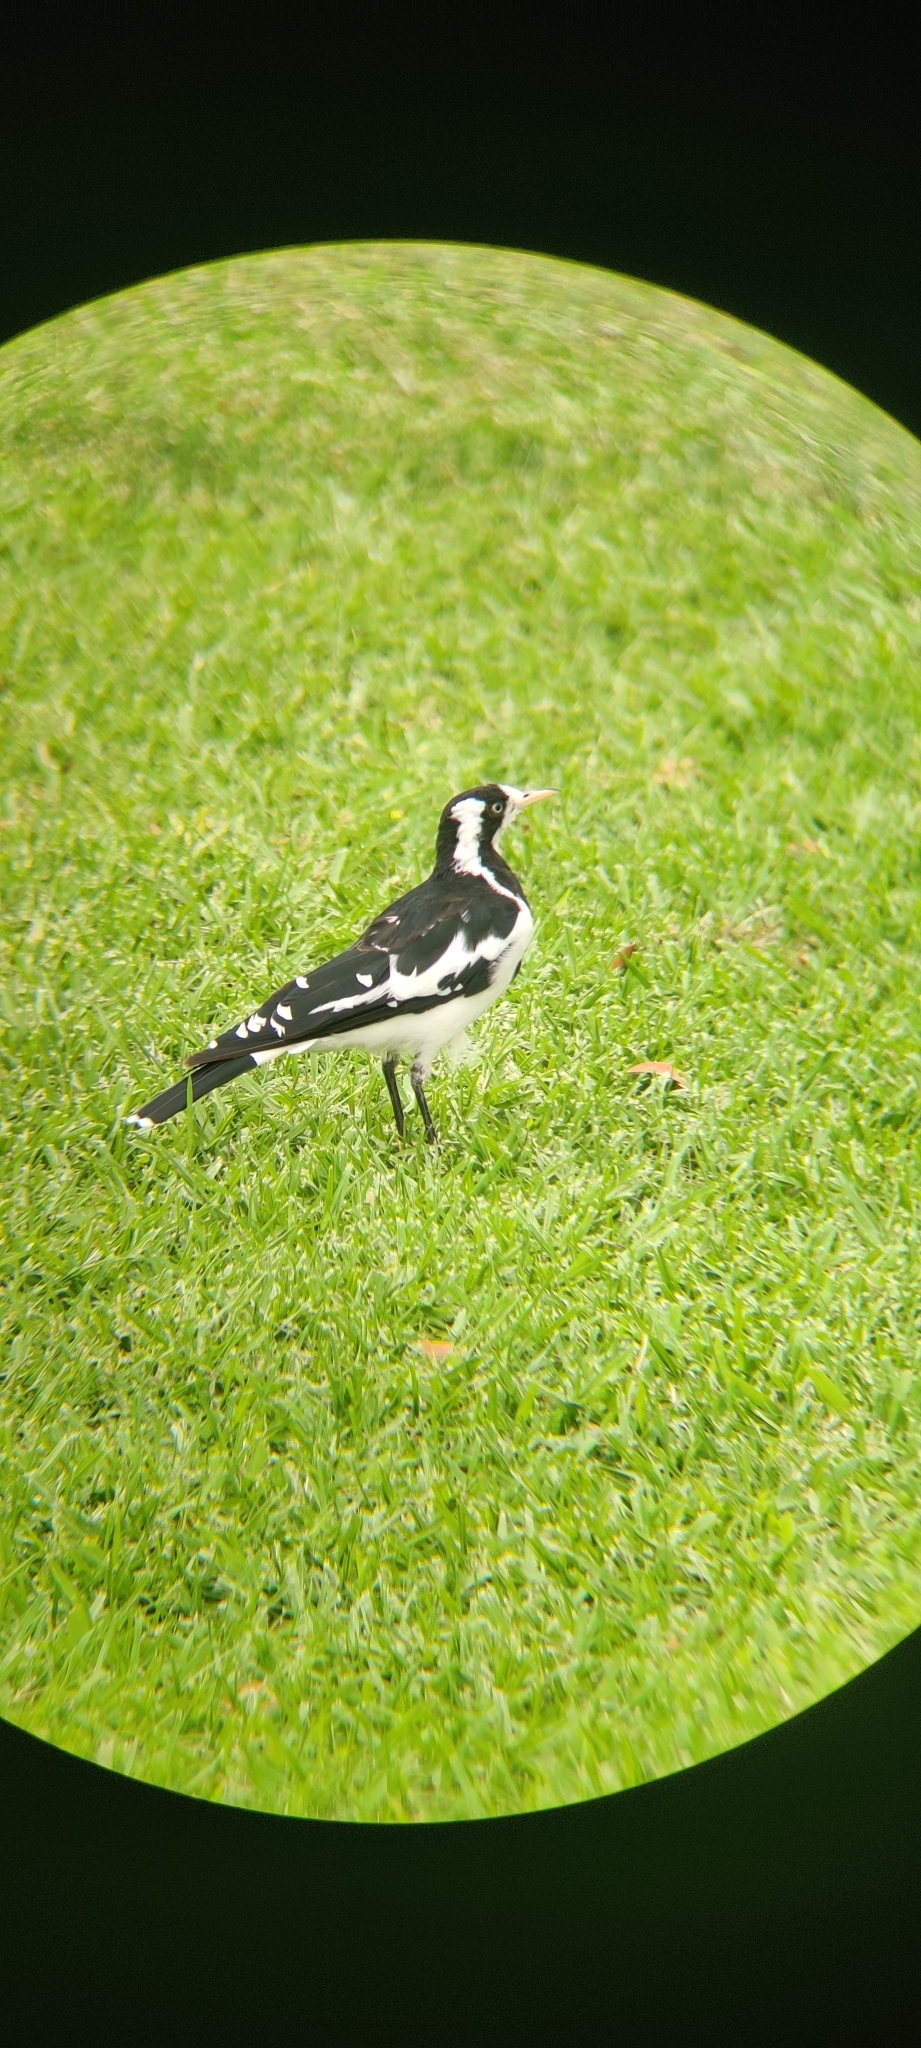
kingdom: Animalia
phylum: Chordata
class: Aves
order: Passeriformes
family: Monarchidae
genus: Grallina
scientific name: Grallina cyanoleuca
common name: Magpie-lark
